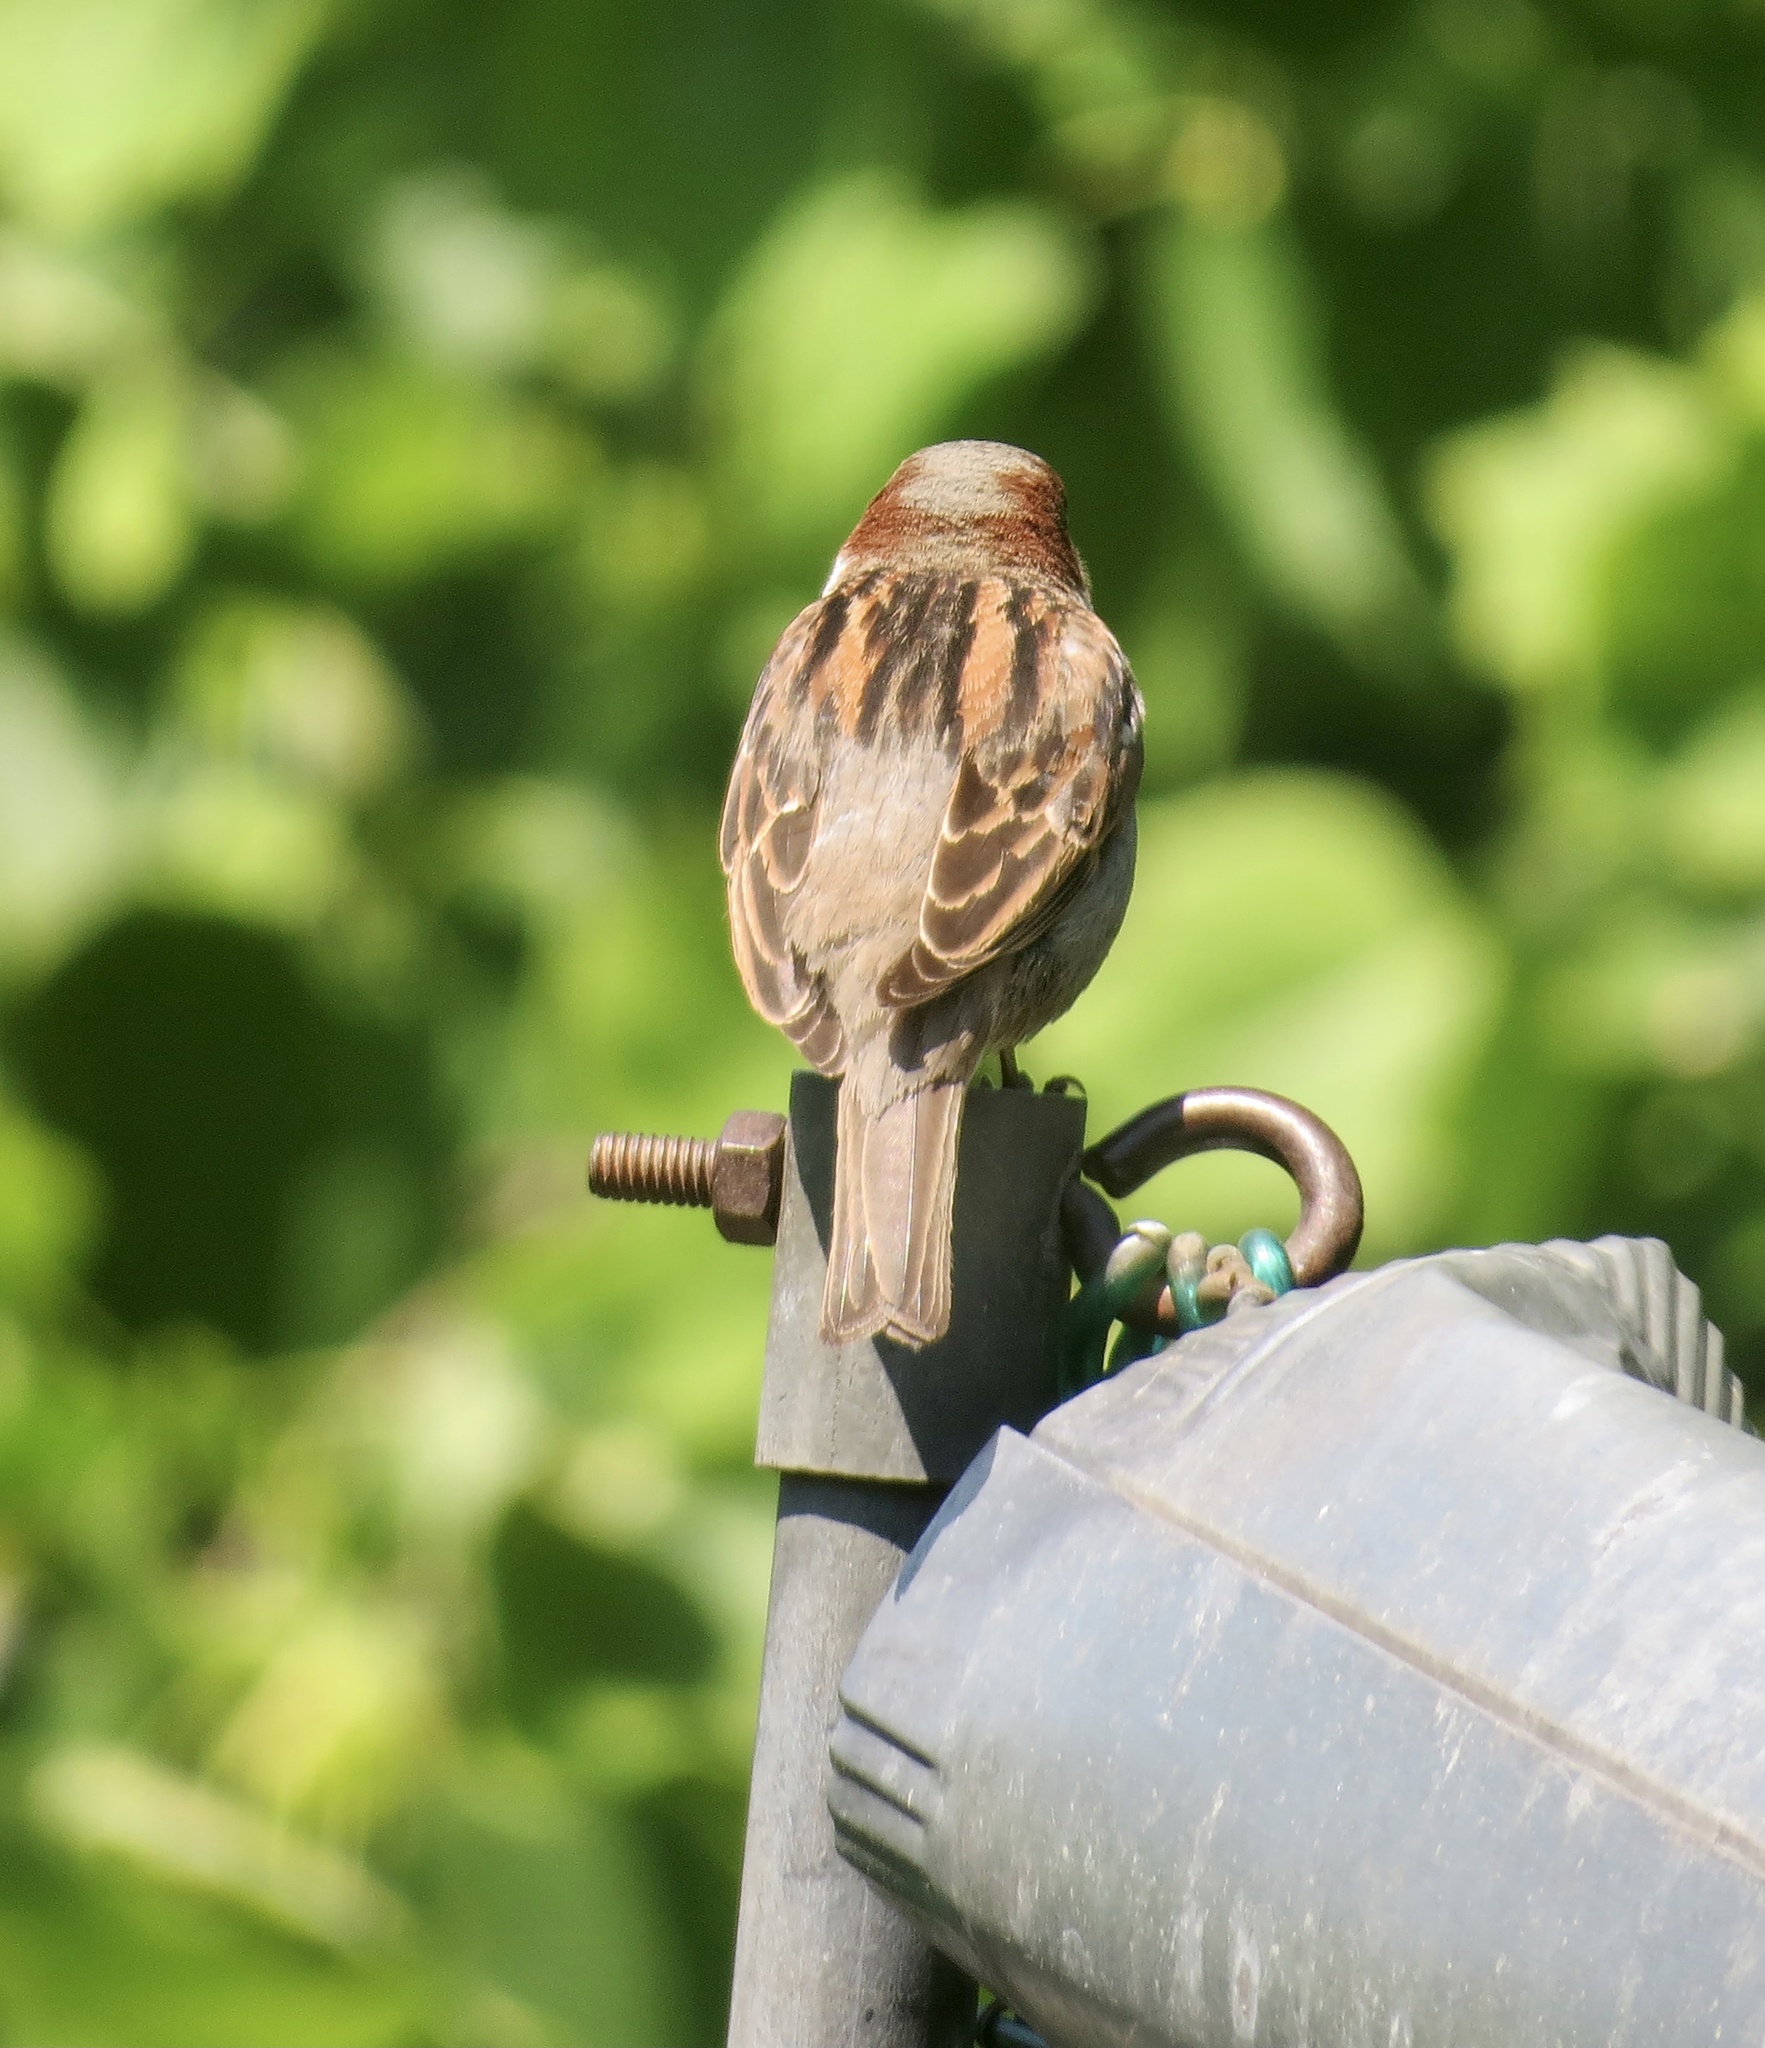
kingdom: Animalia
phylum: Chordata
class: Aves
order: Passeriformes
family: Passeridae
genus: Passer
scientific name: Passer domesticus
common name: House sparrow
